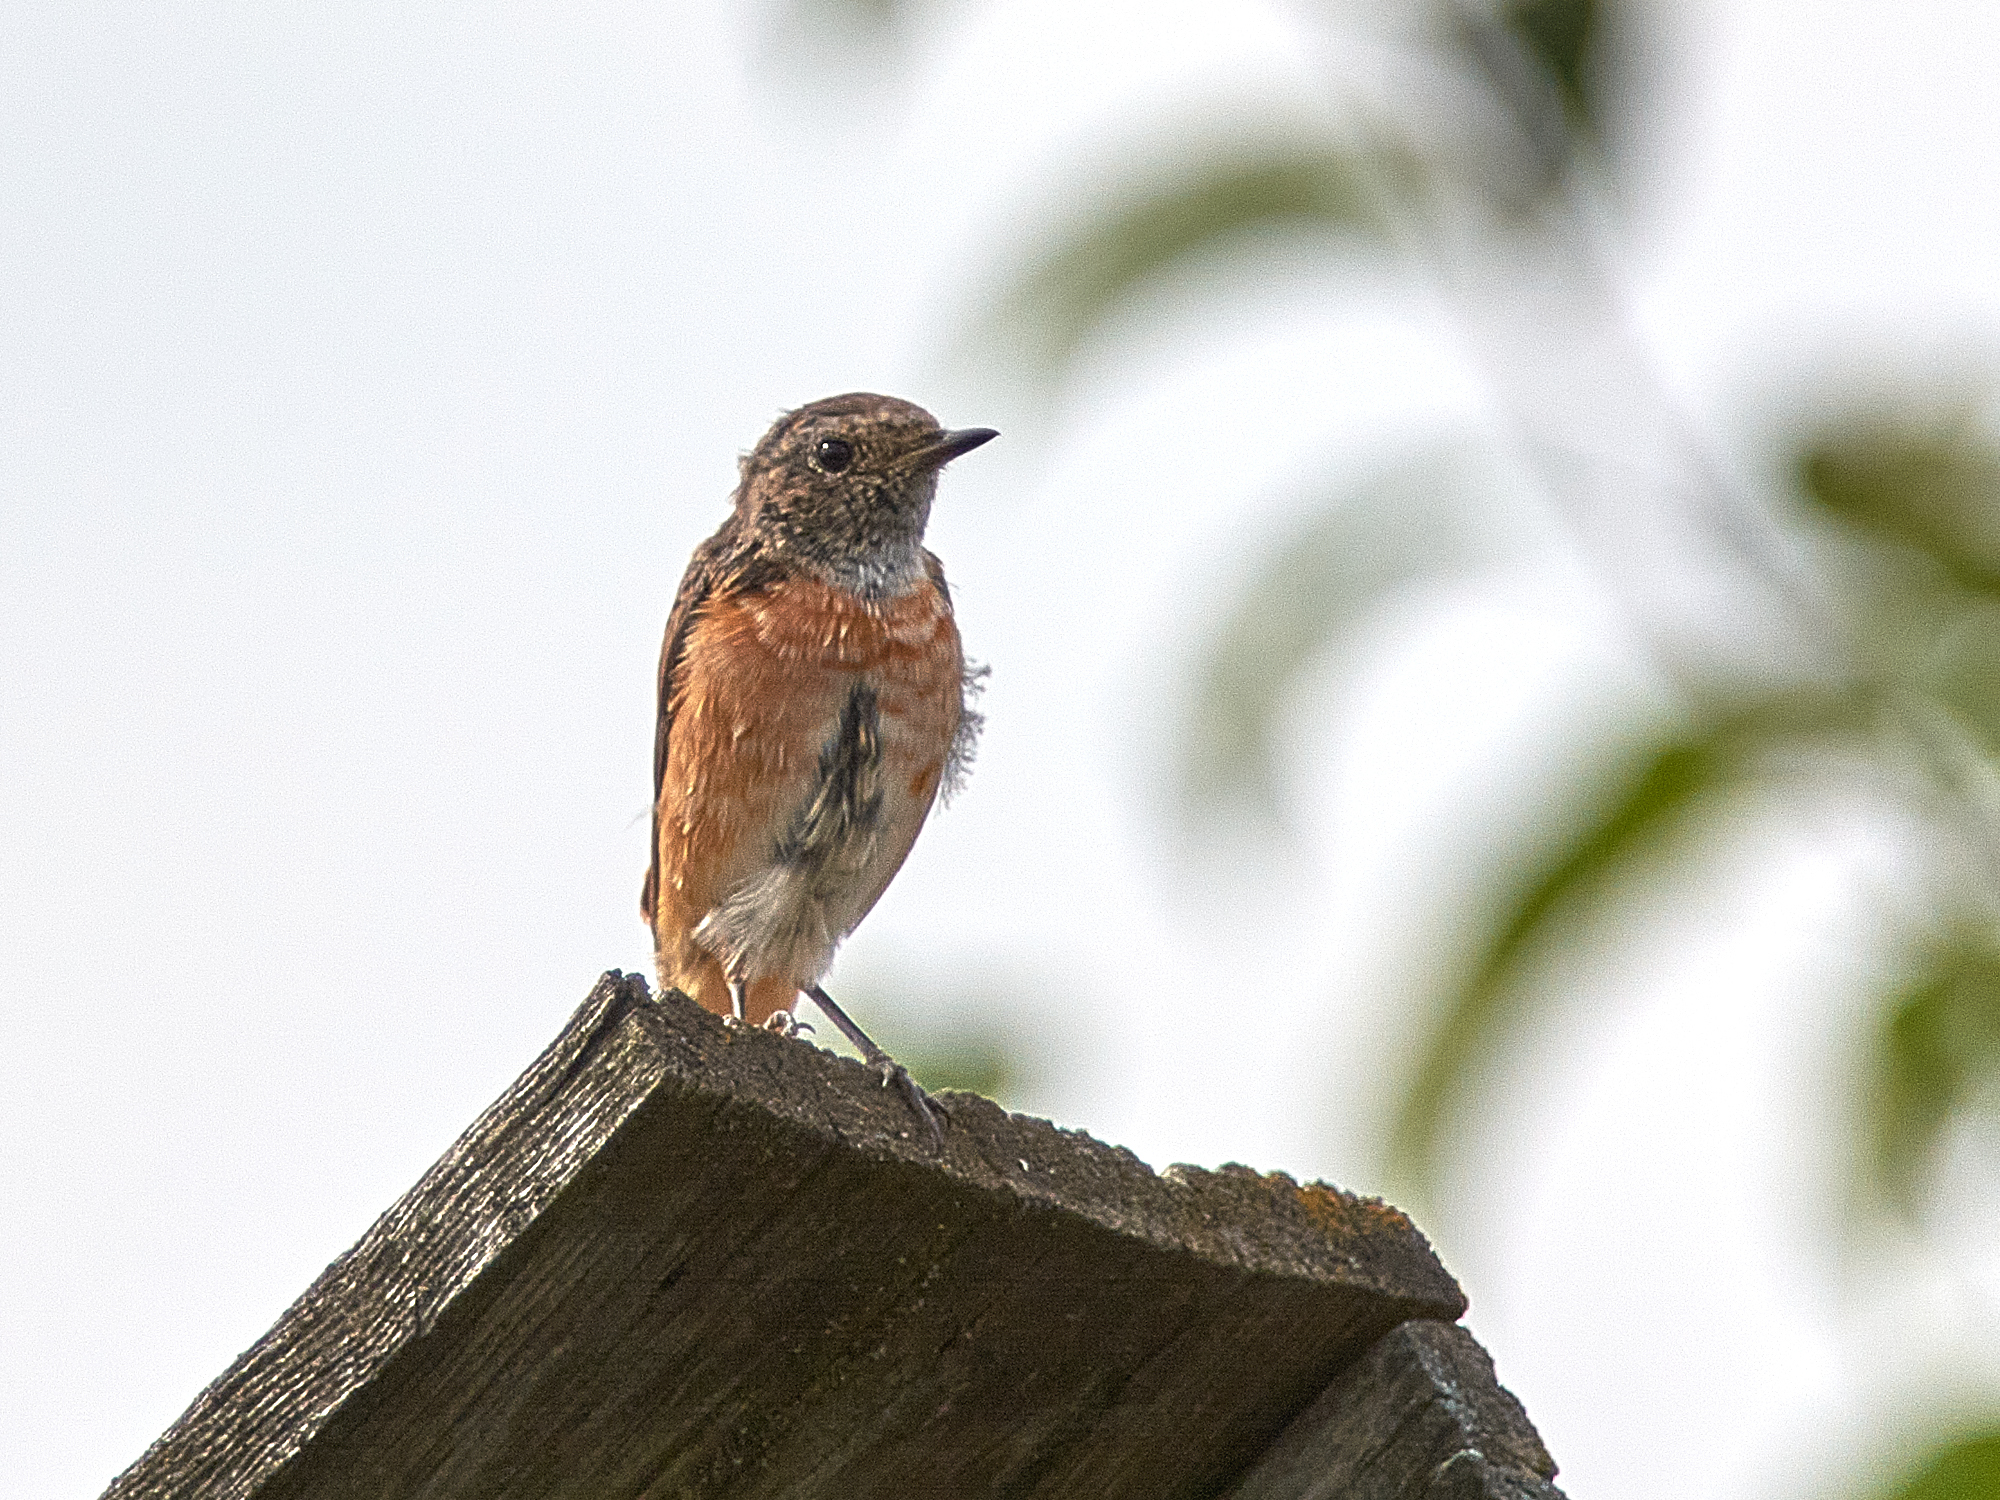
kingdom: Animalia
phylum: Chordata
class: Aves
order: Passeriformes
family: Muscicapidae
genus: Phoenicurus
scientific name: Phoenicurus phoenicurus
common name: Common redstart
